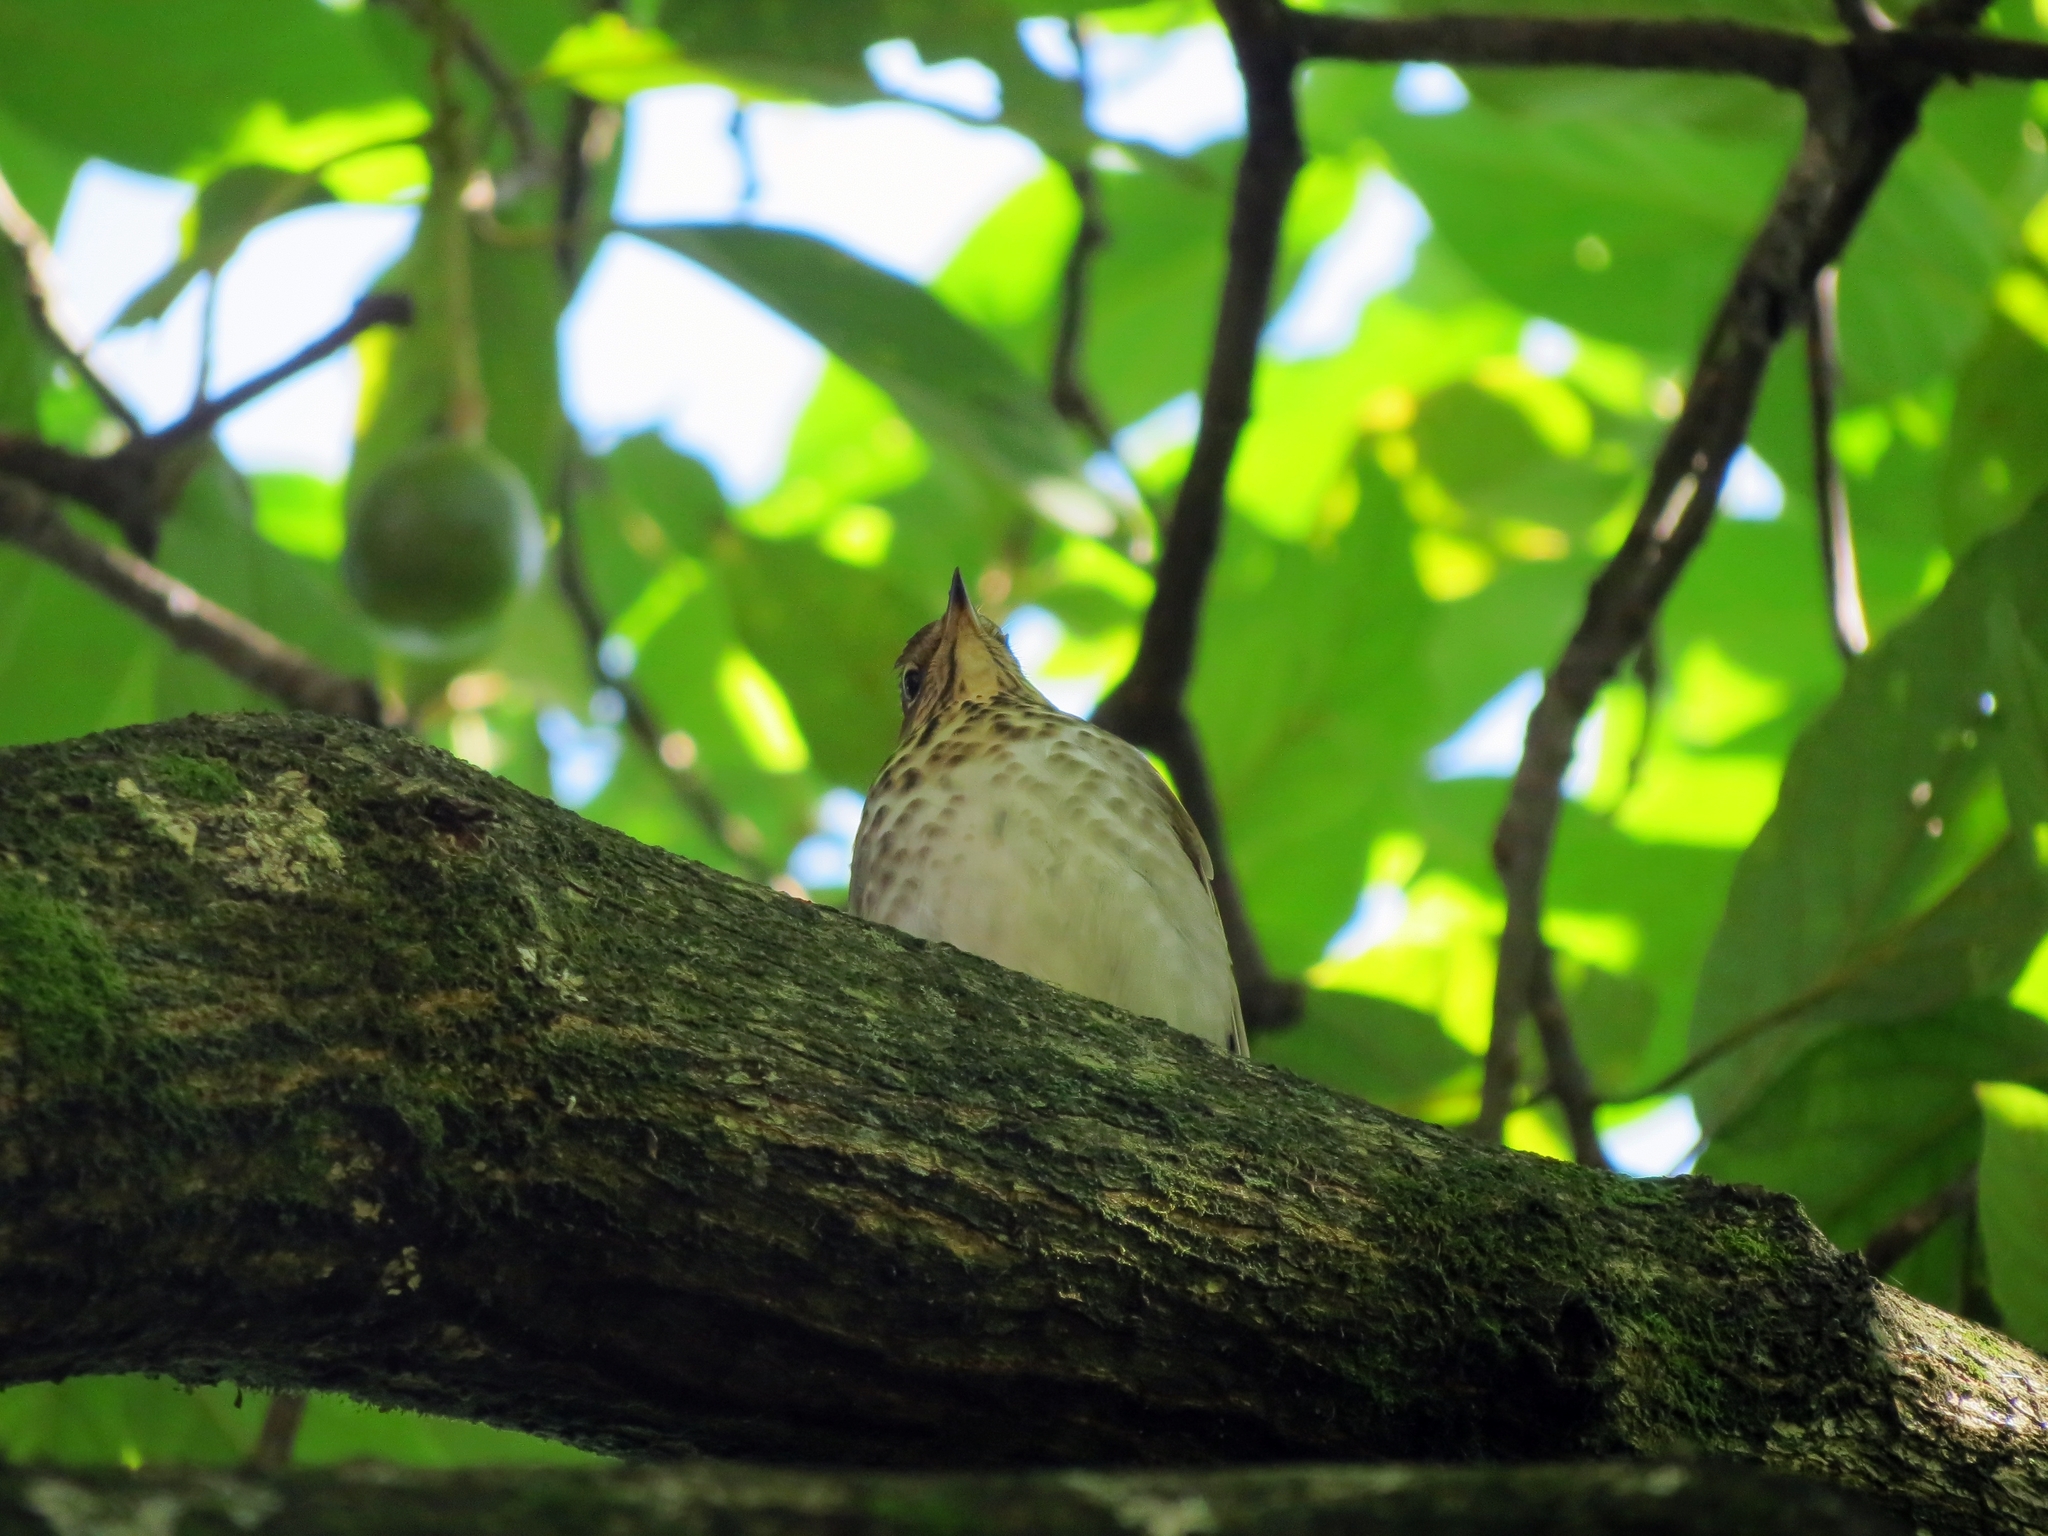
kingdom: Animalia
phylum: Chordata
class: Aves
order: Passeriformes
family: Turdidae
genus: Catharus
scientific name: Catharus ustulatus
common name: Swainson's thrush
